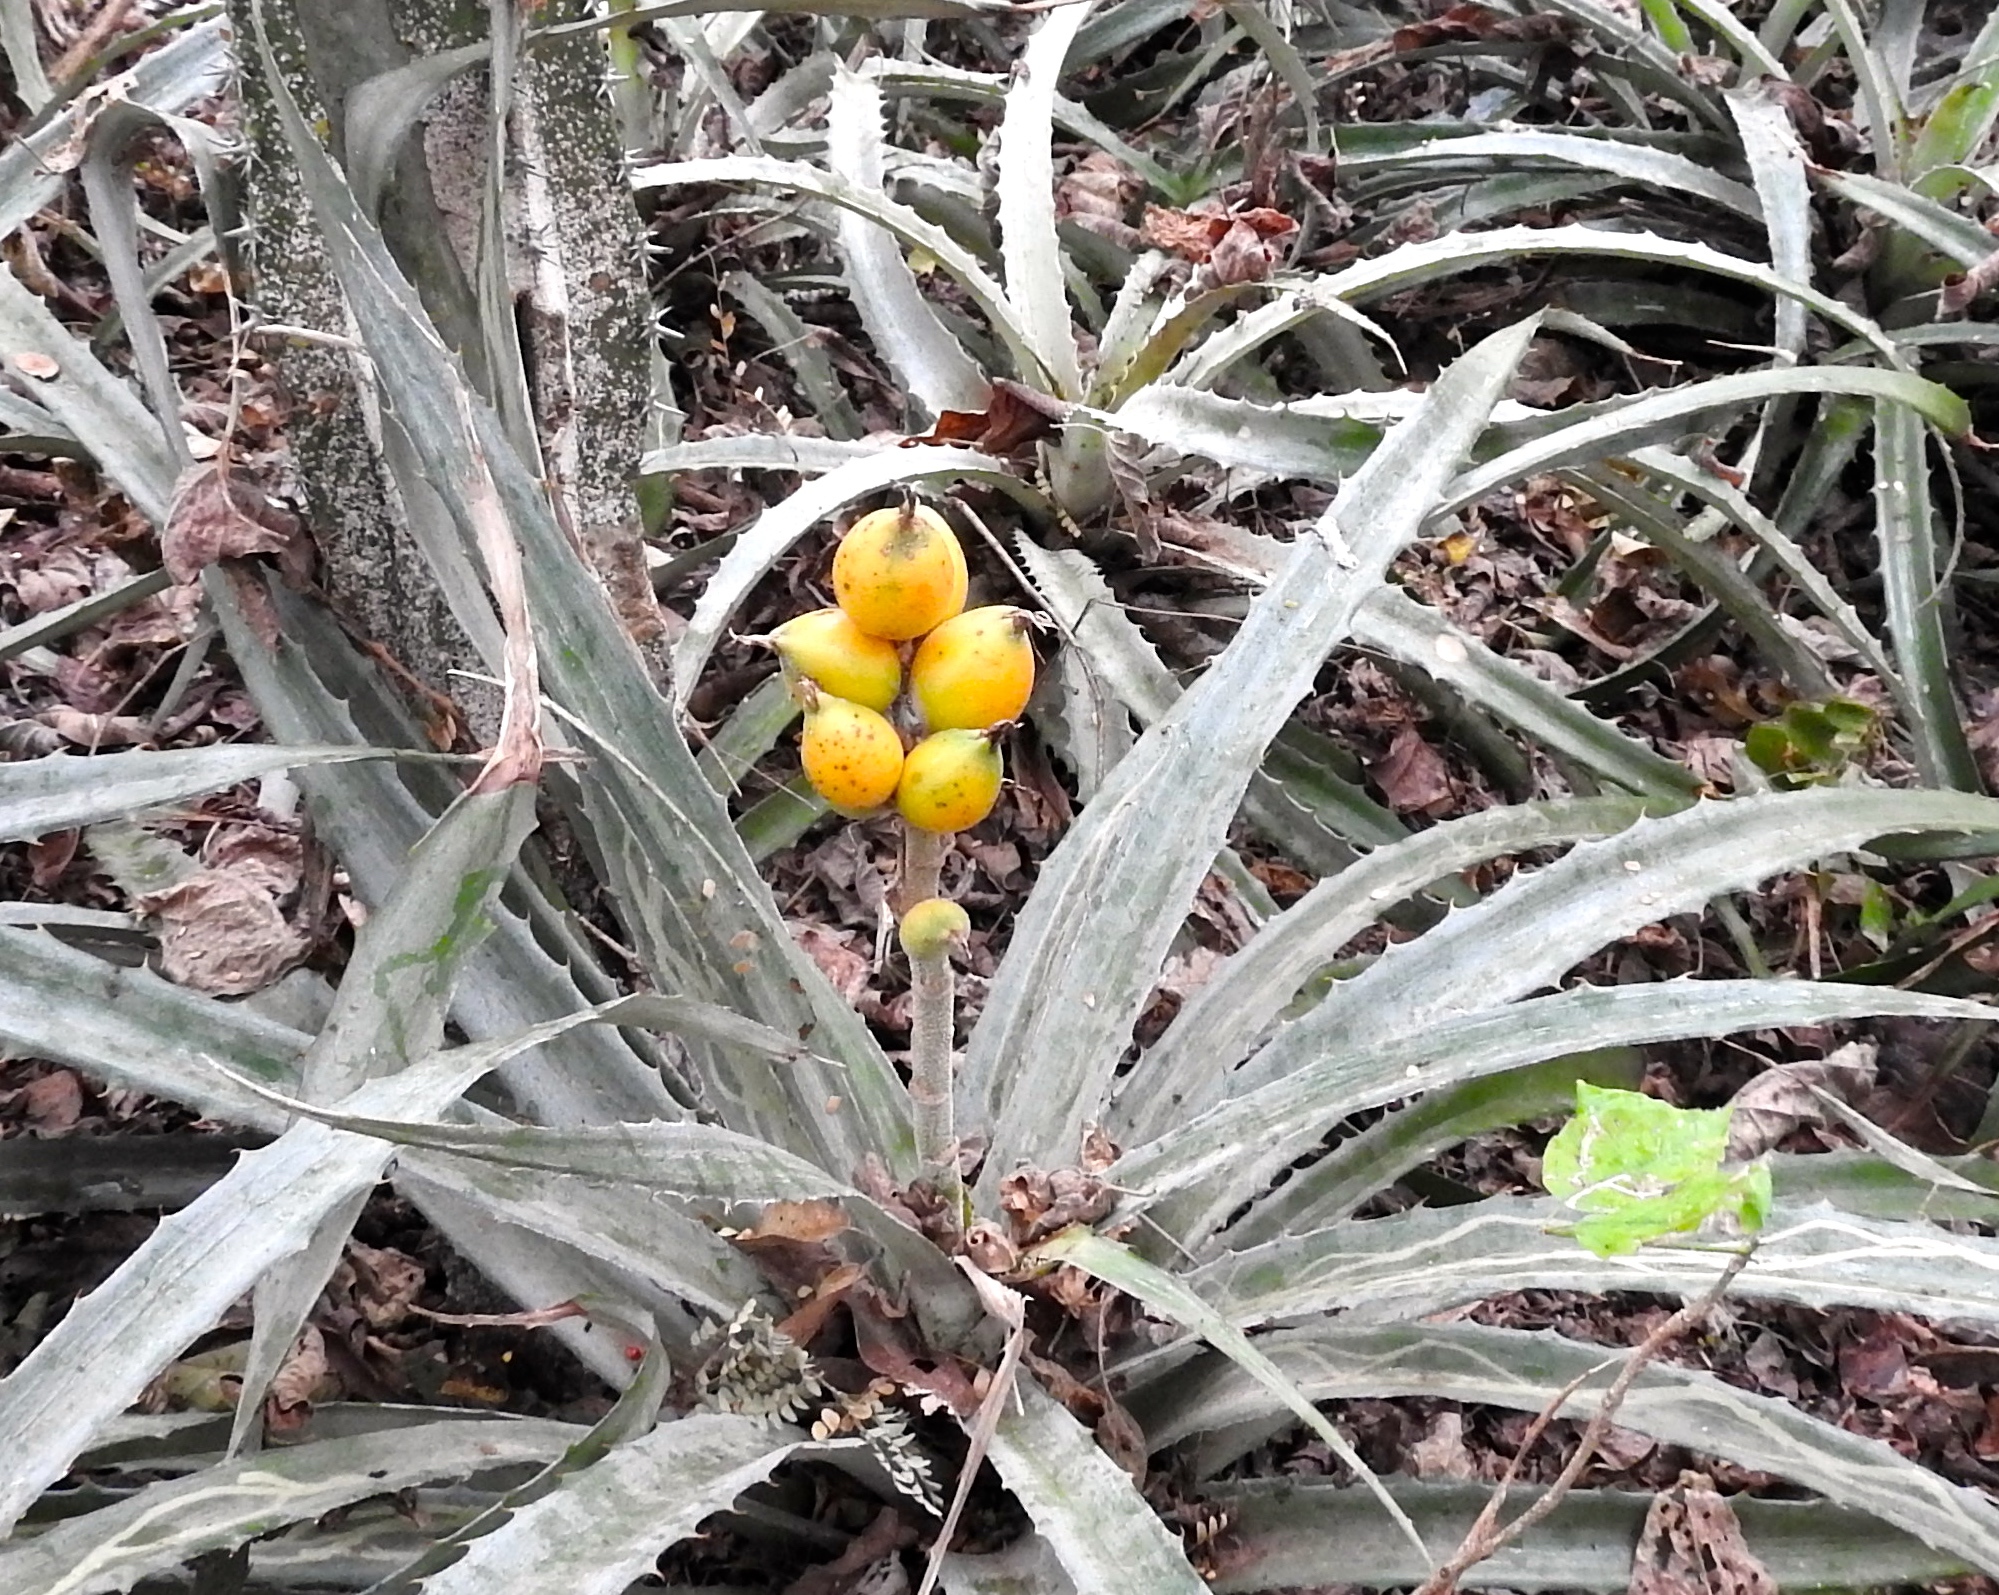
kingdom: Plantae
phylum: Tracheophyta
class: Liliopsida
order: Poales
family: Bromeliaceae
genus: Bromelia
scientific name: Bromelia pinguin
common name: Pinguin
